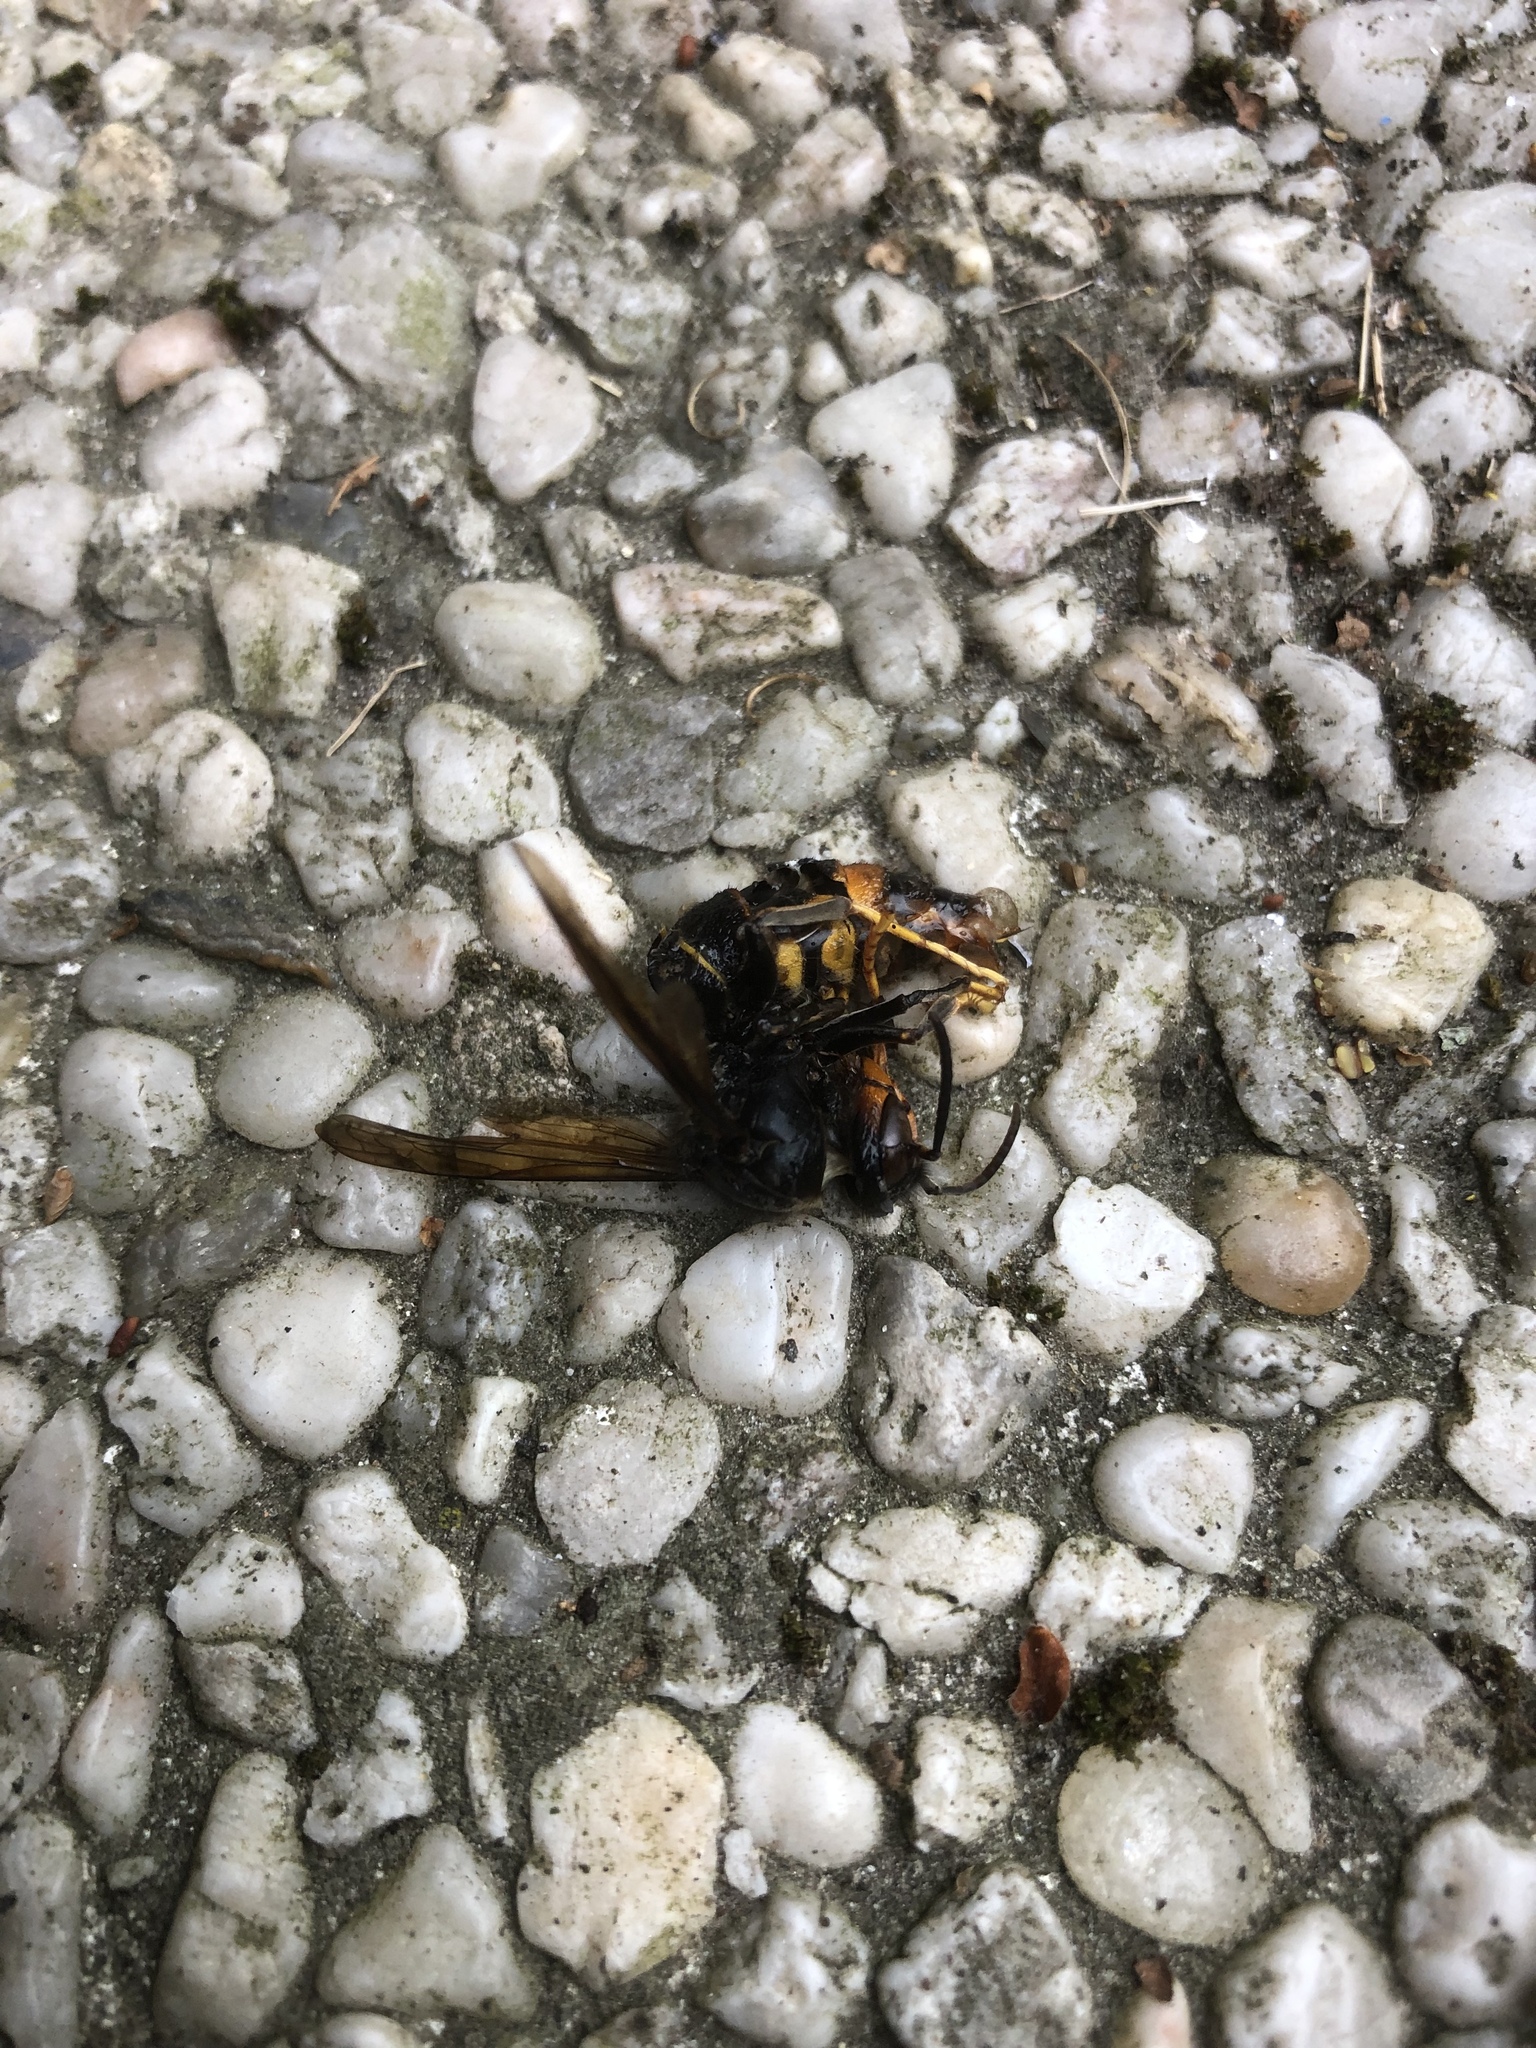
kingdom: Animalia
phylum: Arthropoda
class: Insecta
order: Hymenoptera
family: Vespidae
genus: Vespa
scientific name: Vespa velutina
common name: Asian hornet
